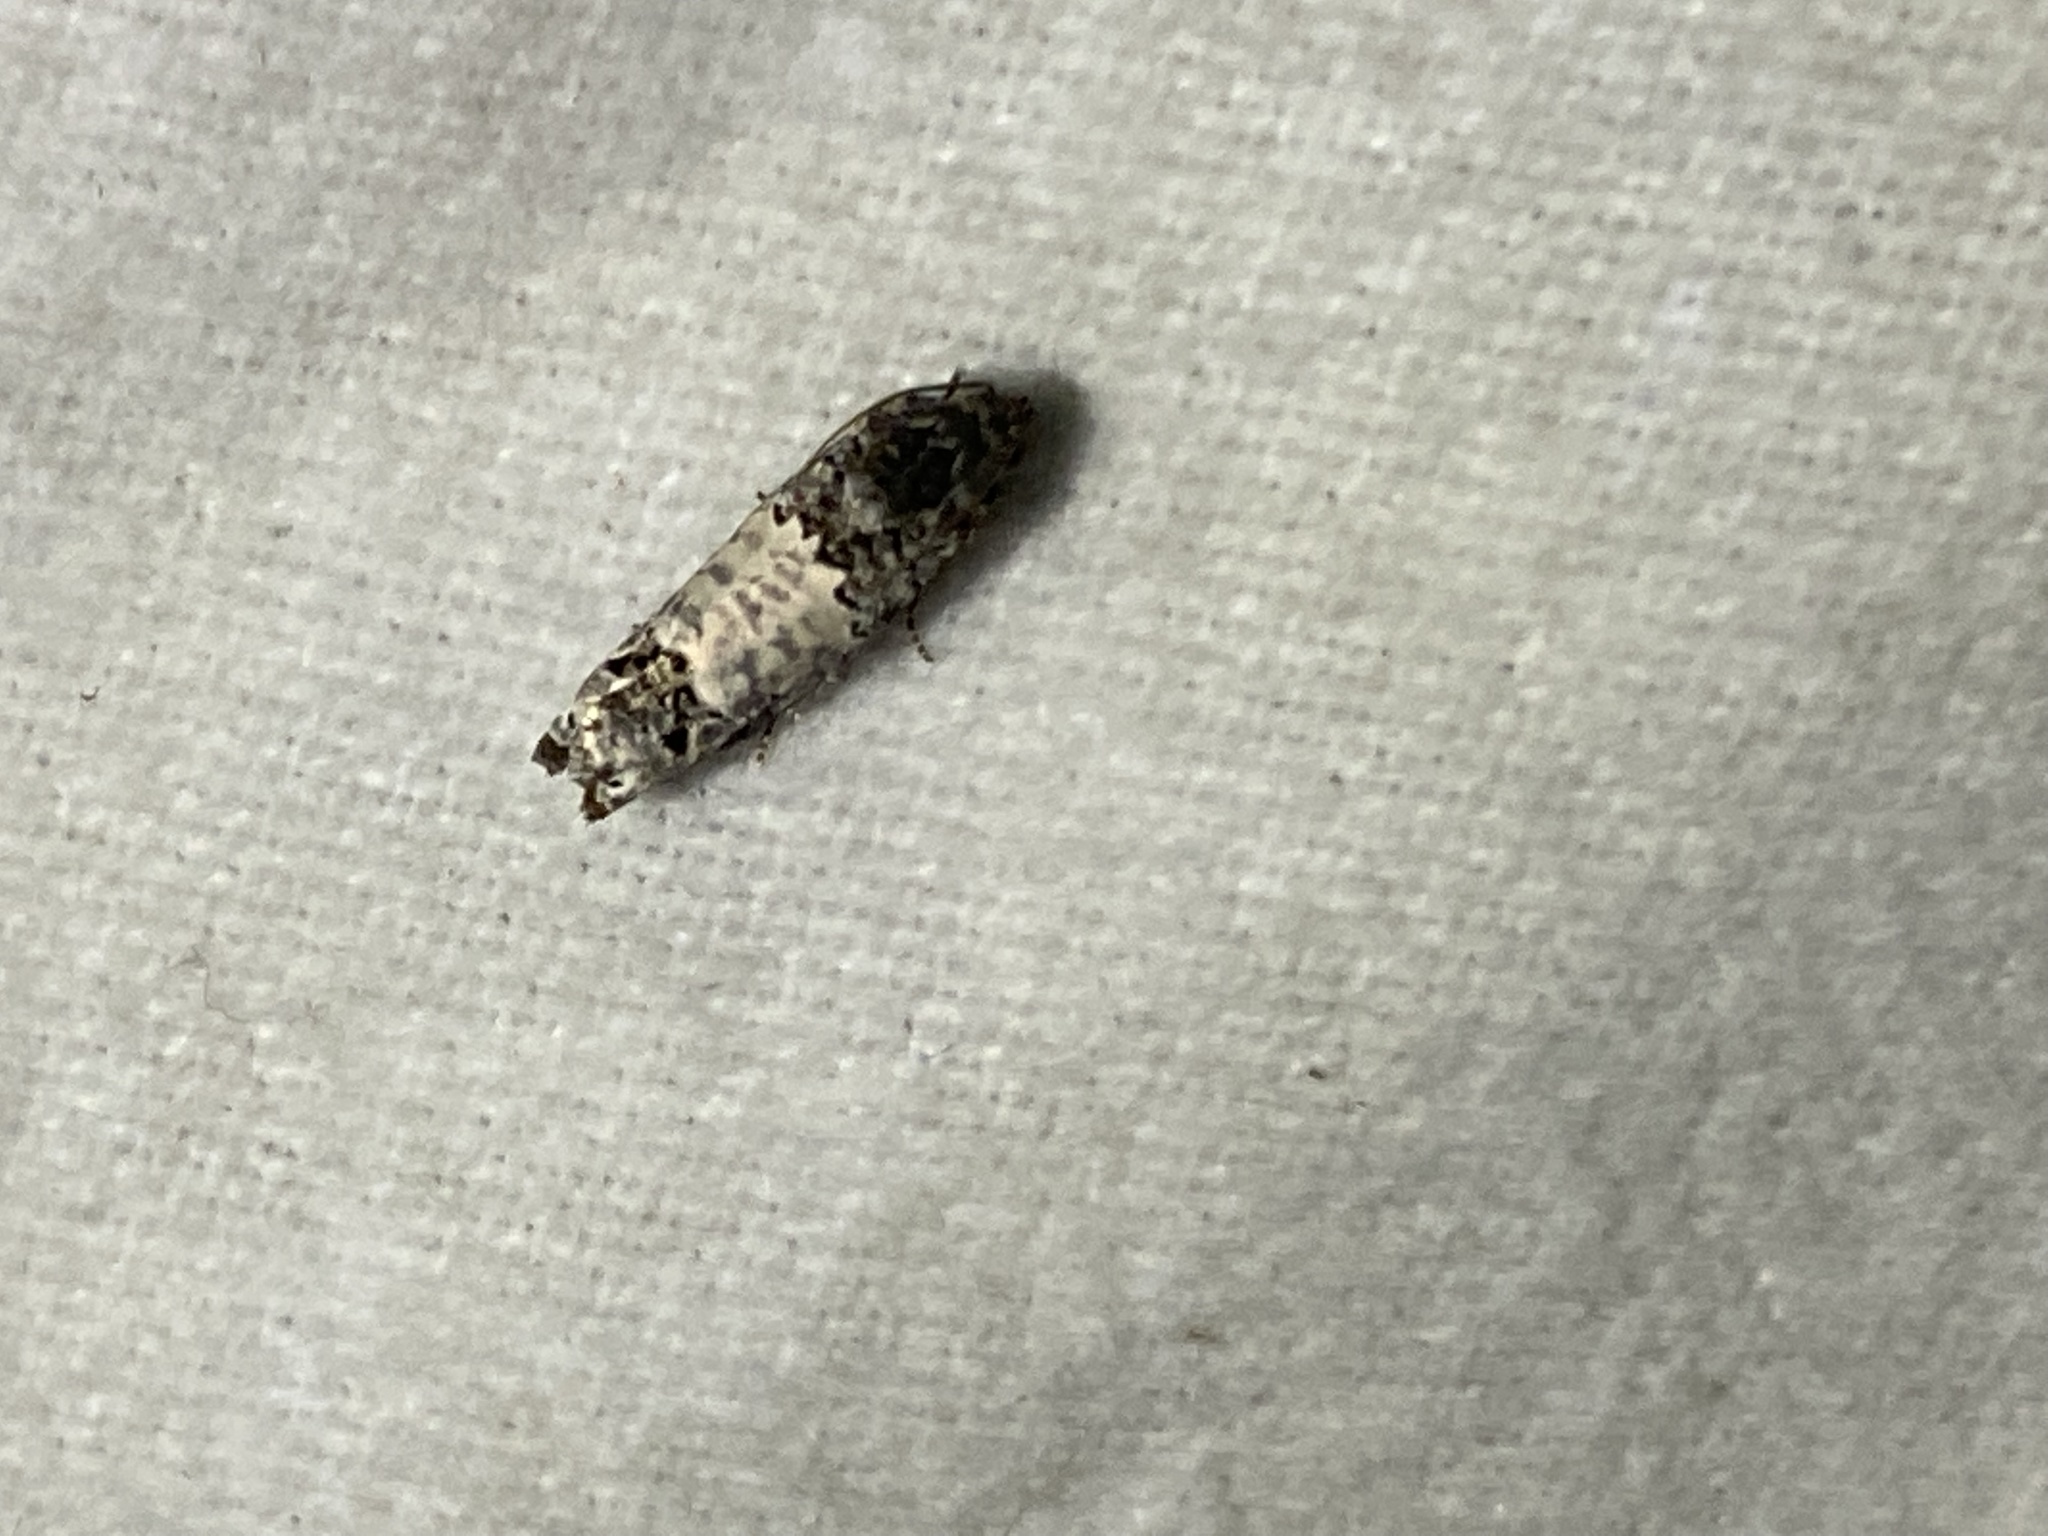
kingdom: Animalia
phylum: Arthropoda
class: Insecta
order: Lepidoptera
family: Tortricidae
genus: Epiblema
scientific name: Epiblema carolinana
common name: Gray-blotched epiblema moth
